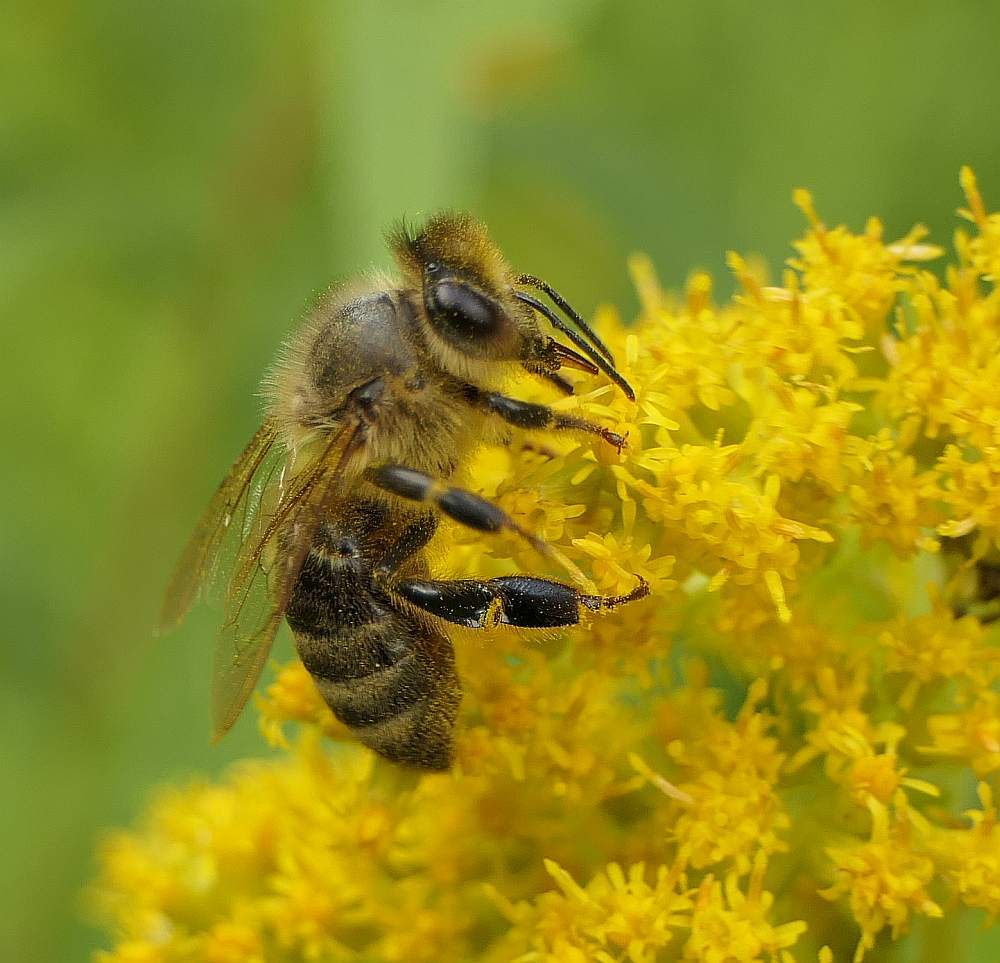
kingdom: Animalia
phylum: Arthropoda
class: Insecta
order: Hymenoptera
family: Apidae
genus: Apis
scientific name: Apis mellifera
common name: Honey bee
